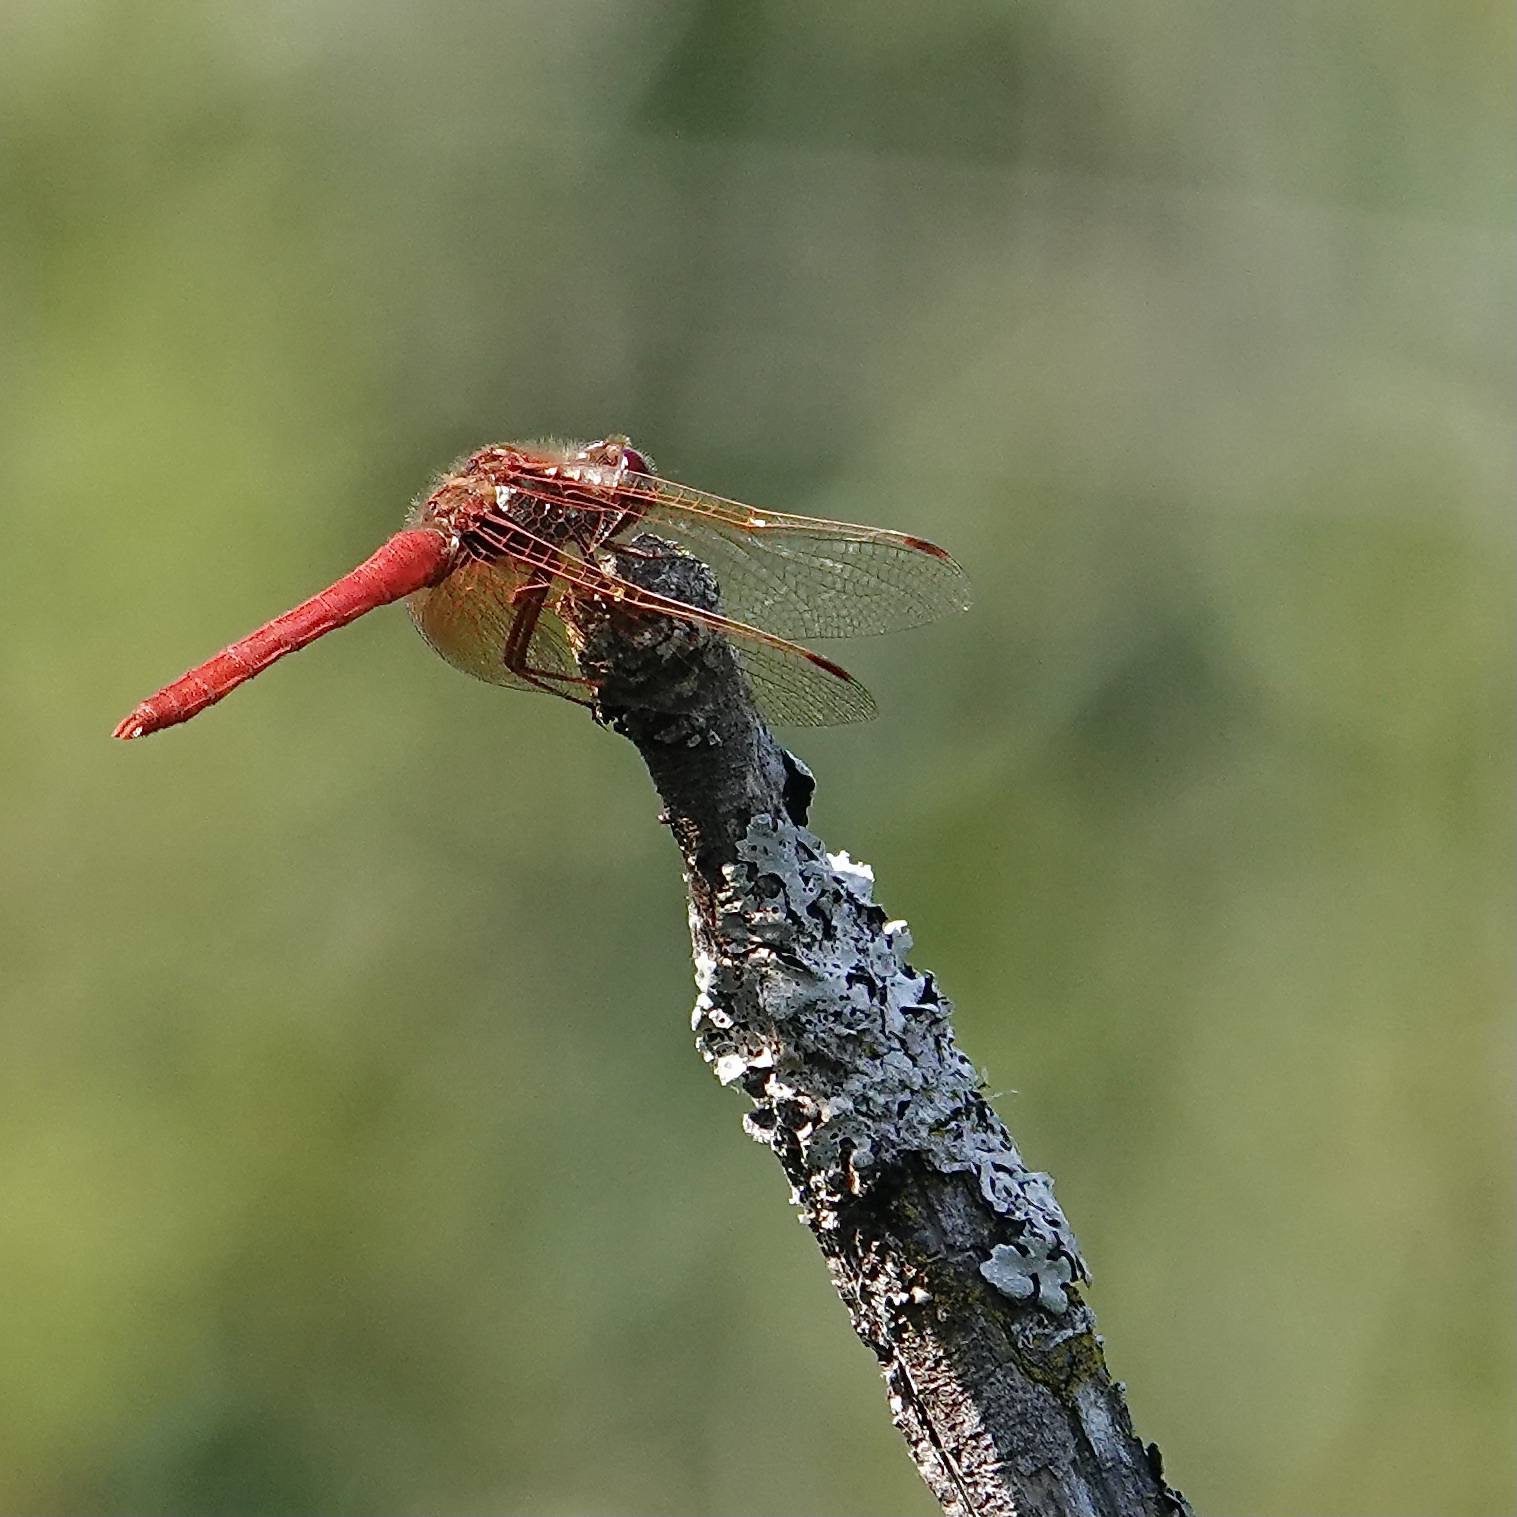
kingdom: Animalia
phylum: Arthropoda
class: Insecta
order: Odonata
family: Libellulidae
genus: Sympetrum
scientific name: Sympetrum illotum
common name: Cardinal meadowhawk
